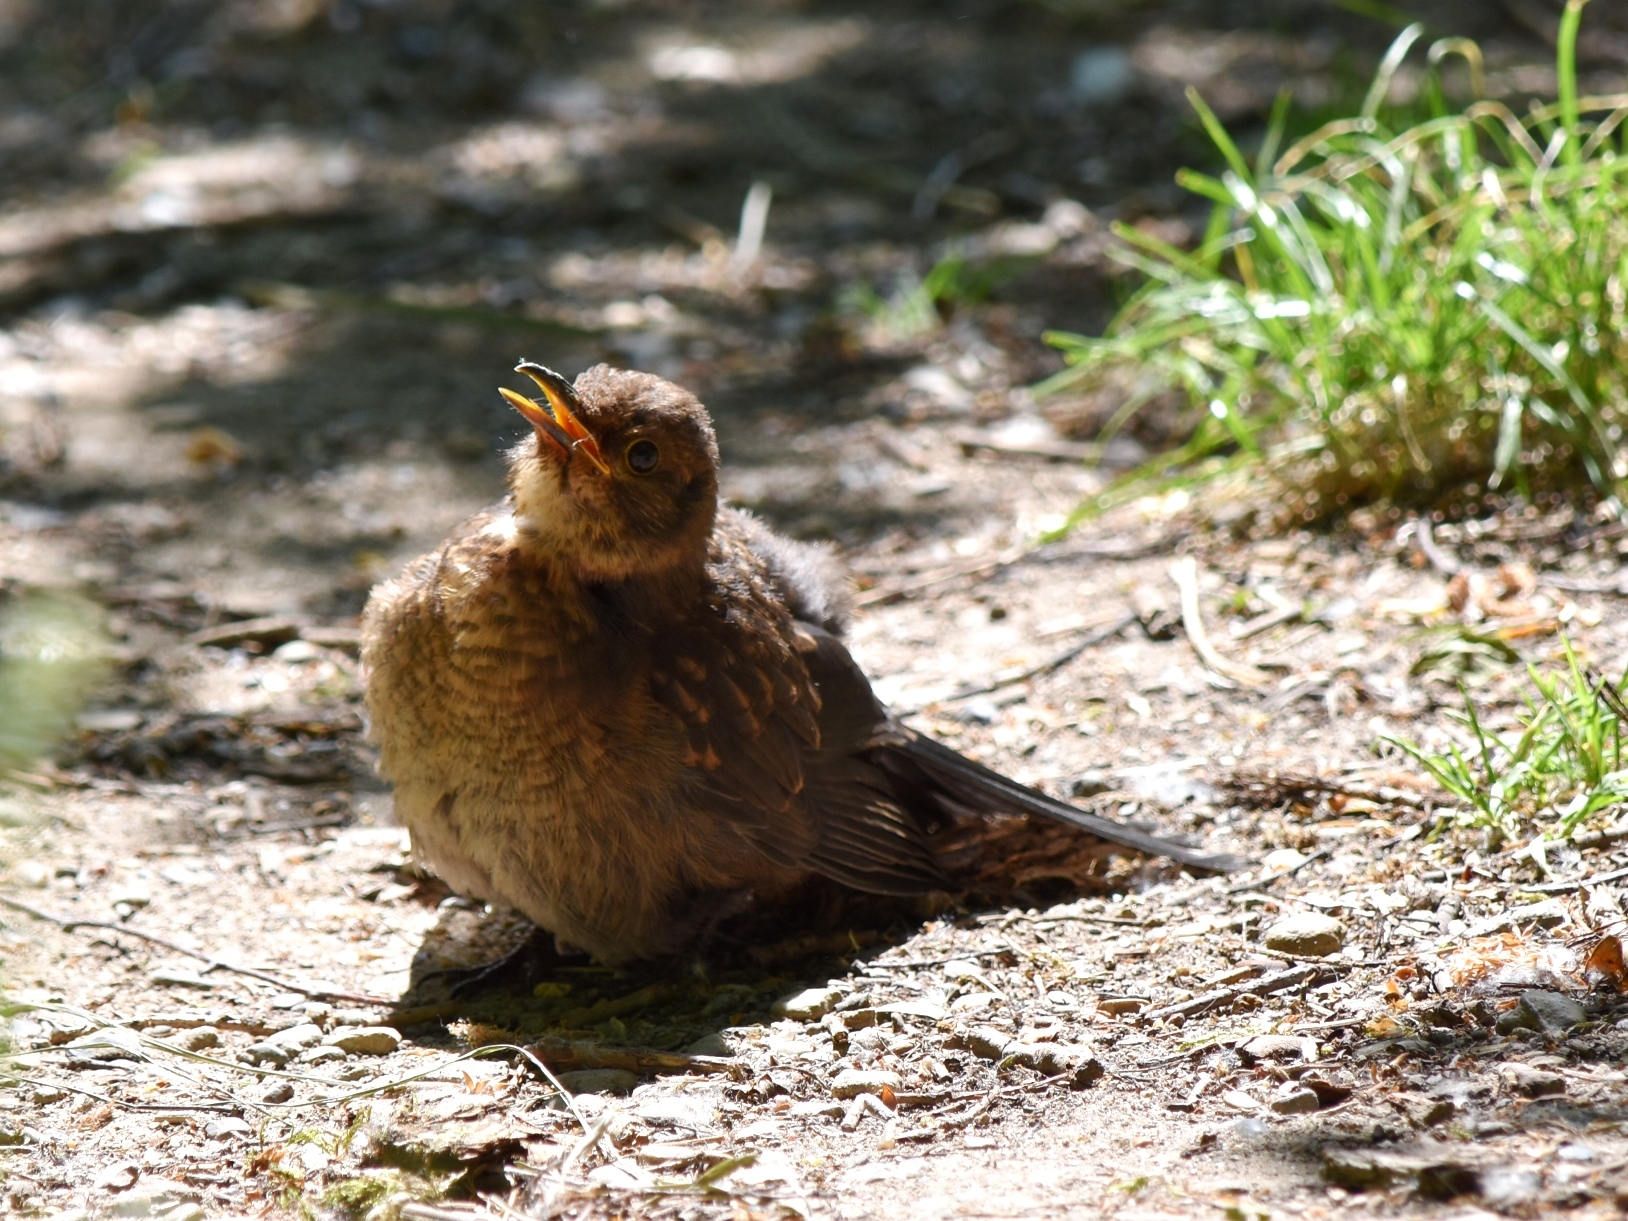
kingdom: Animalia
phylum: Chordata
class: Aves
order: Passeriformes
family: Turdidae
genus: Turdus
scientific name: Turdus merula
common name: Common blackbird
